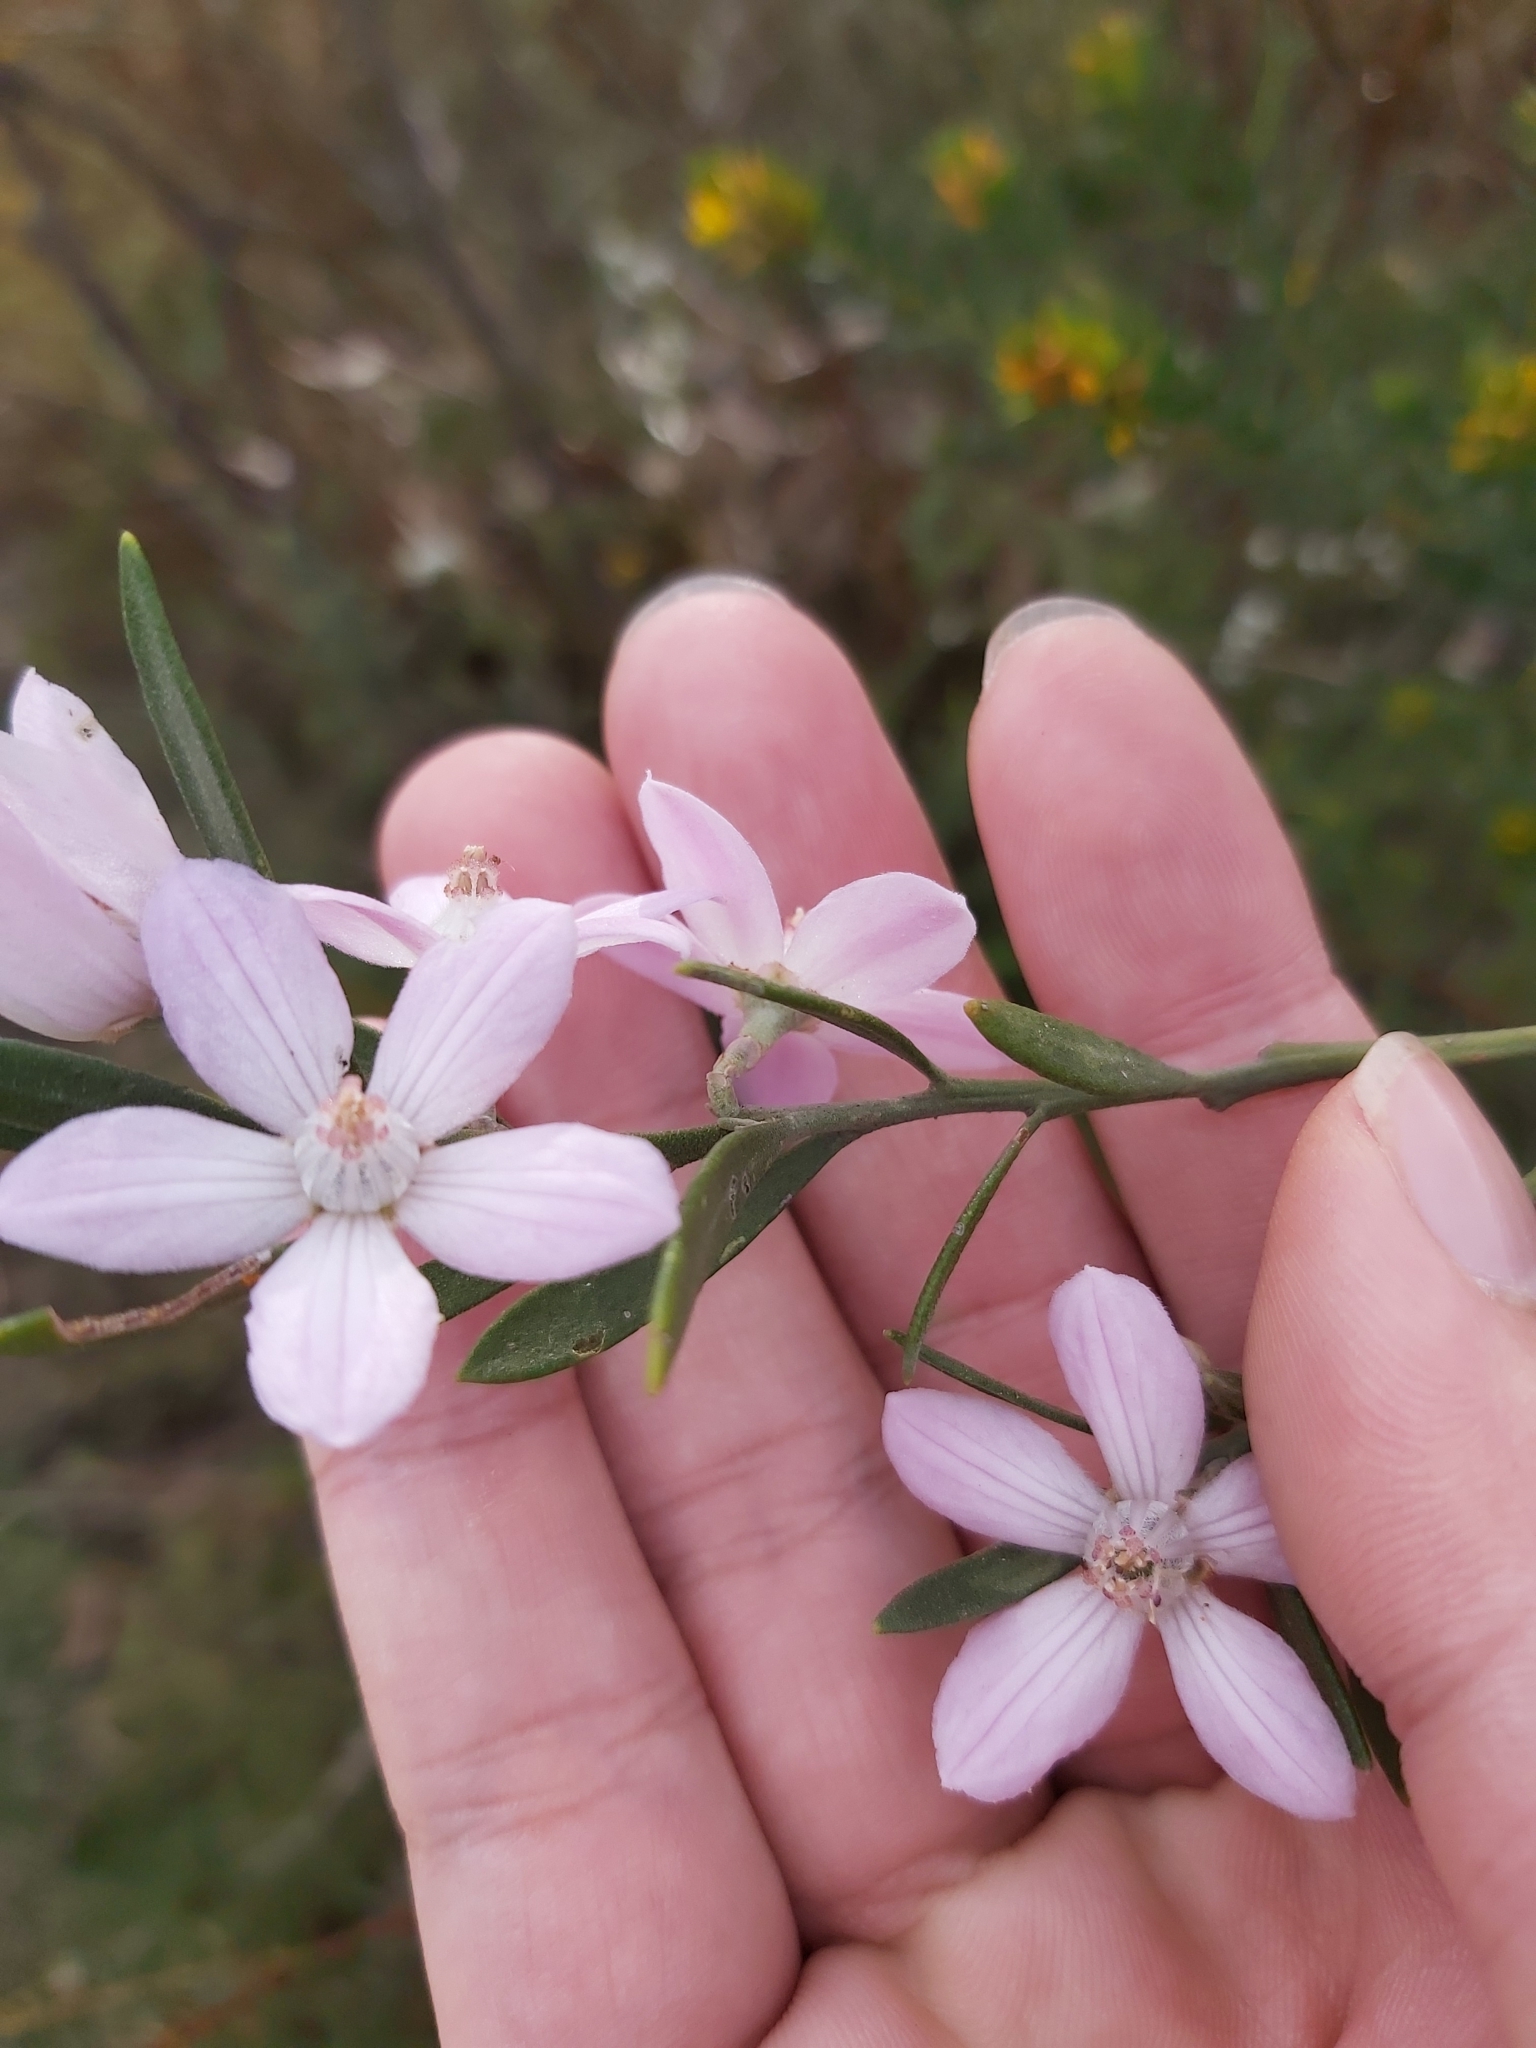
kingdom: Plantae
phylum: Tracheophyta
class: Magnoliopsida
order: Sapindales
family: Rutaceae
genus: Eriostemon
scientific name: Eriostemon australasius
